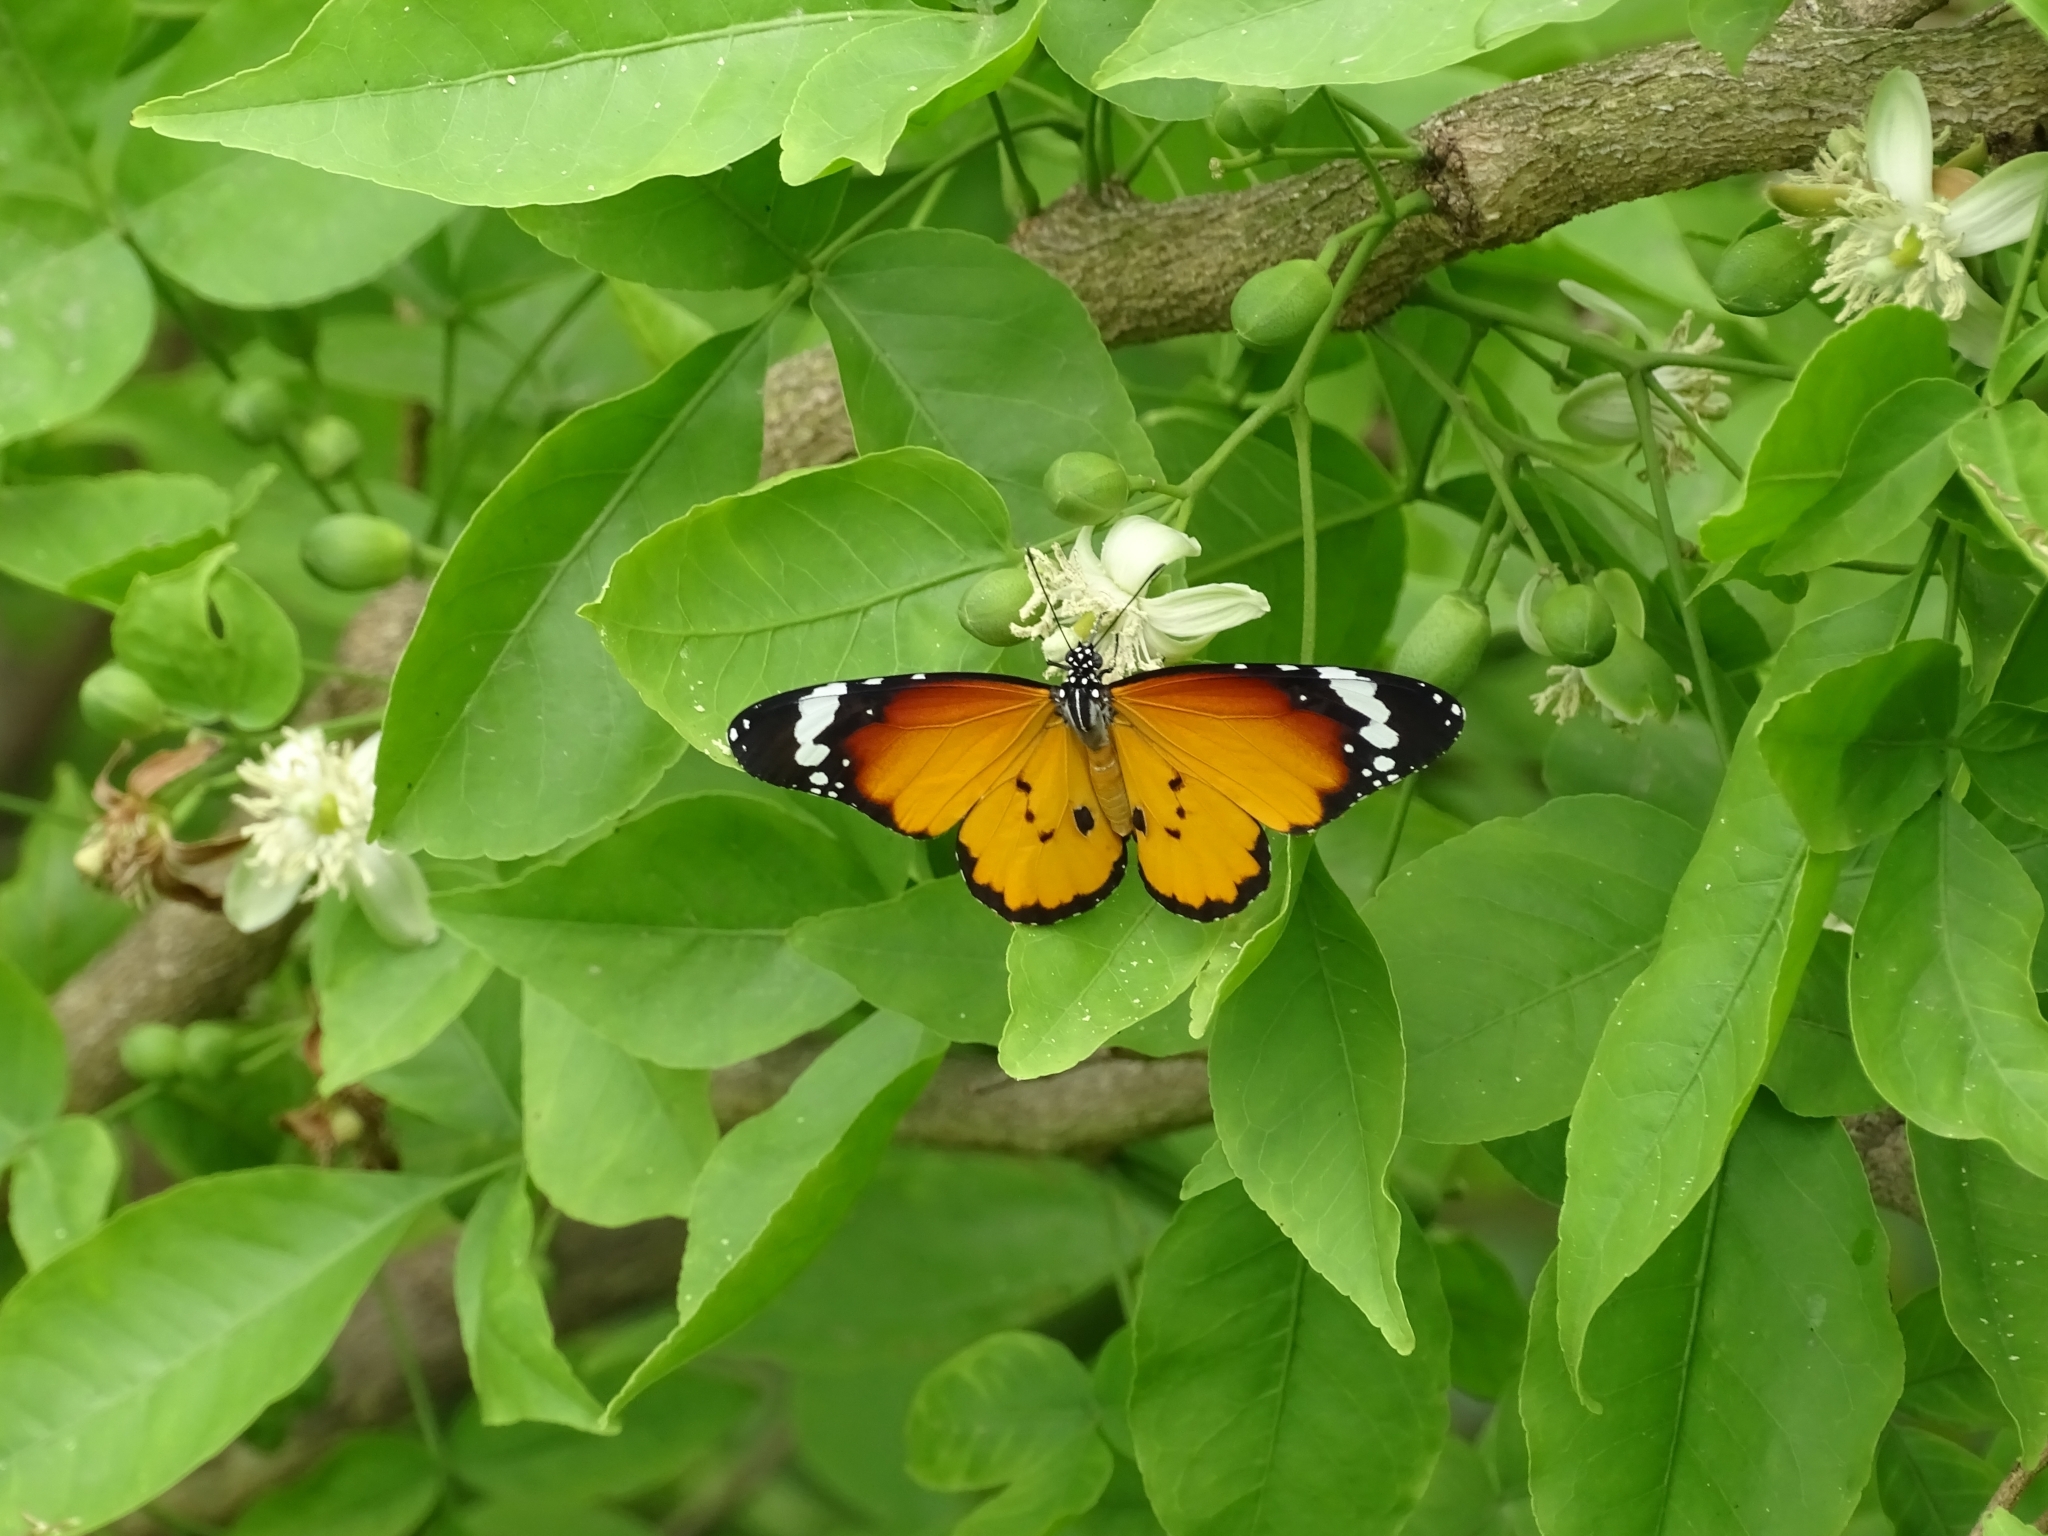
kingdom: Animalia
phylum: Arthropoda
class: Insecta
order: Lepidoptera
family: Nymphalidae
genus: Danaus
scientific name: Danaus chrysippus
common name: Plain tiger
